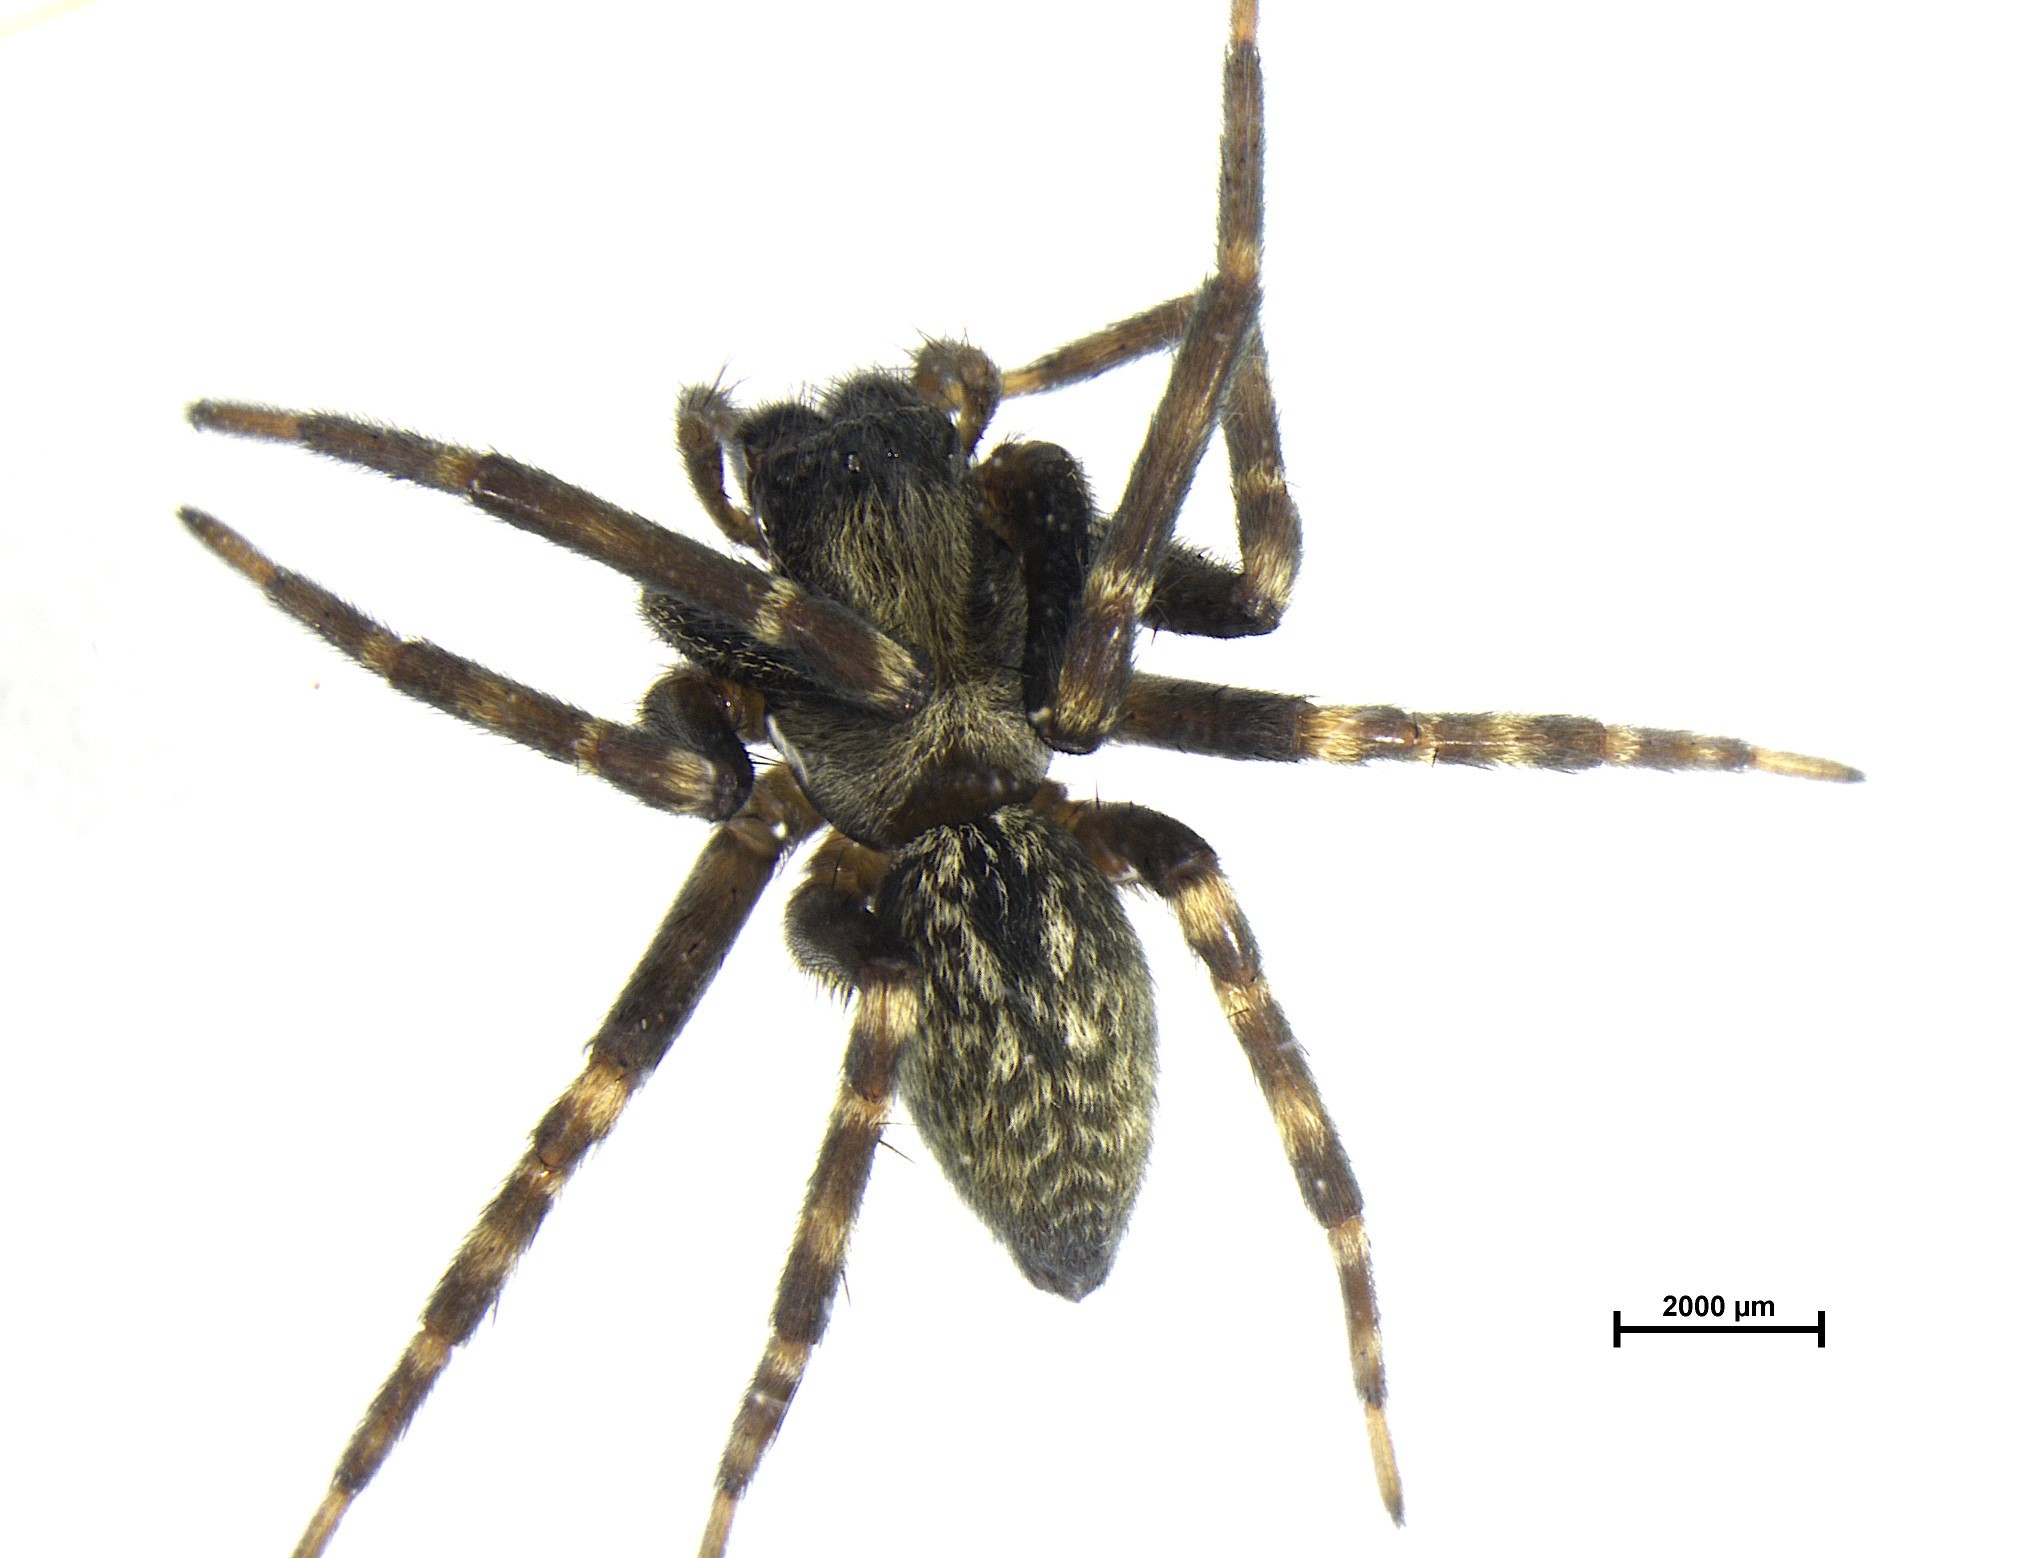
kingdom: Animalia
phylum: Arthropoda
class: Arachnida
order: Araneae
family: Desidae
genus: Badumna
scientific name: Badumna longinqua
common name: Gray house spider
